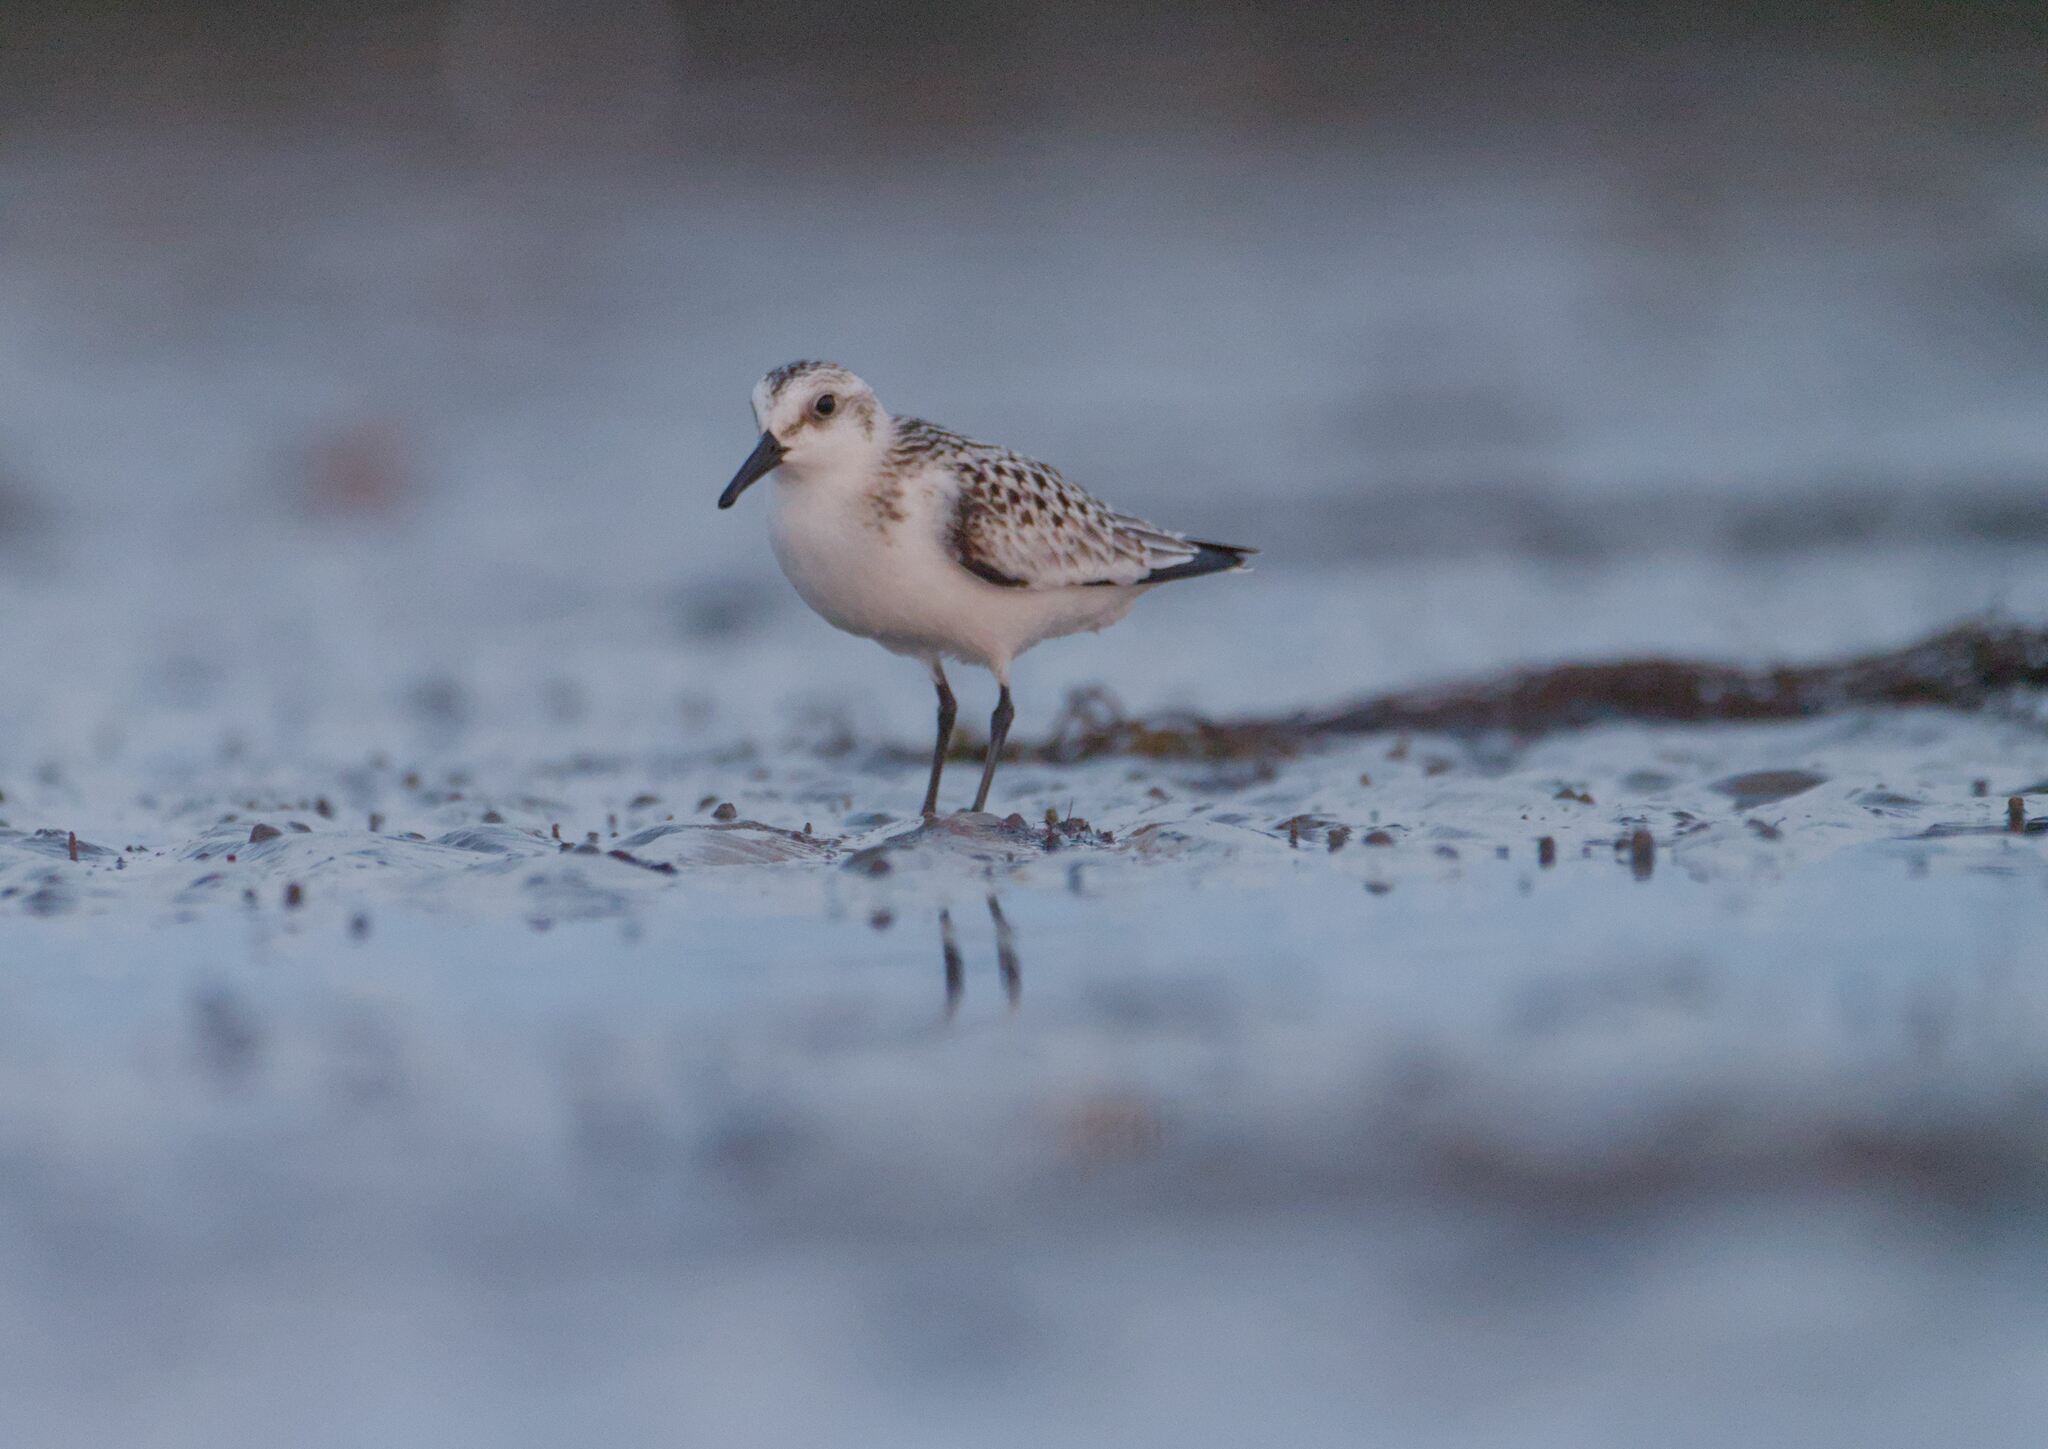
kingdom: Animalia
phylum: Chordata
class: Aves
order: Charadriiformes
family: Scolopacidae
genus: Calidris
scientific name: Calidris alba
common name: Sanderling
